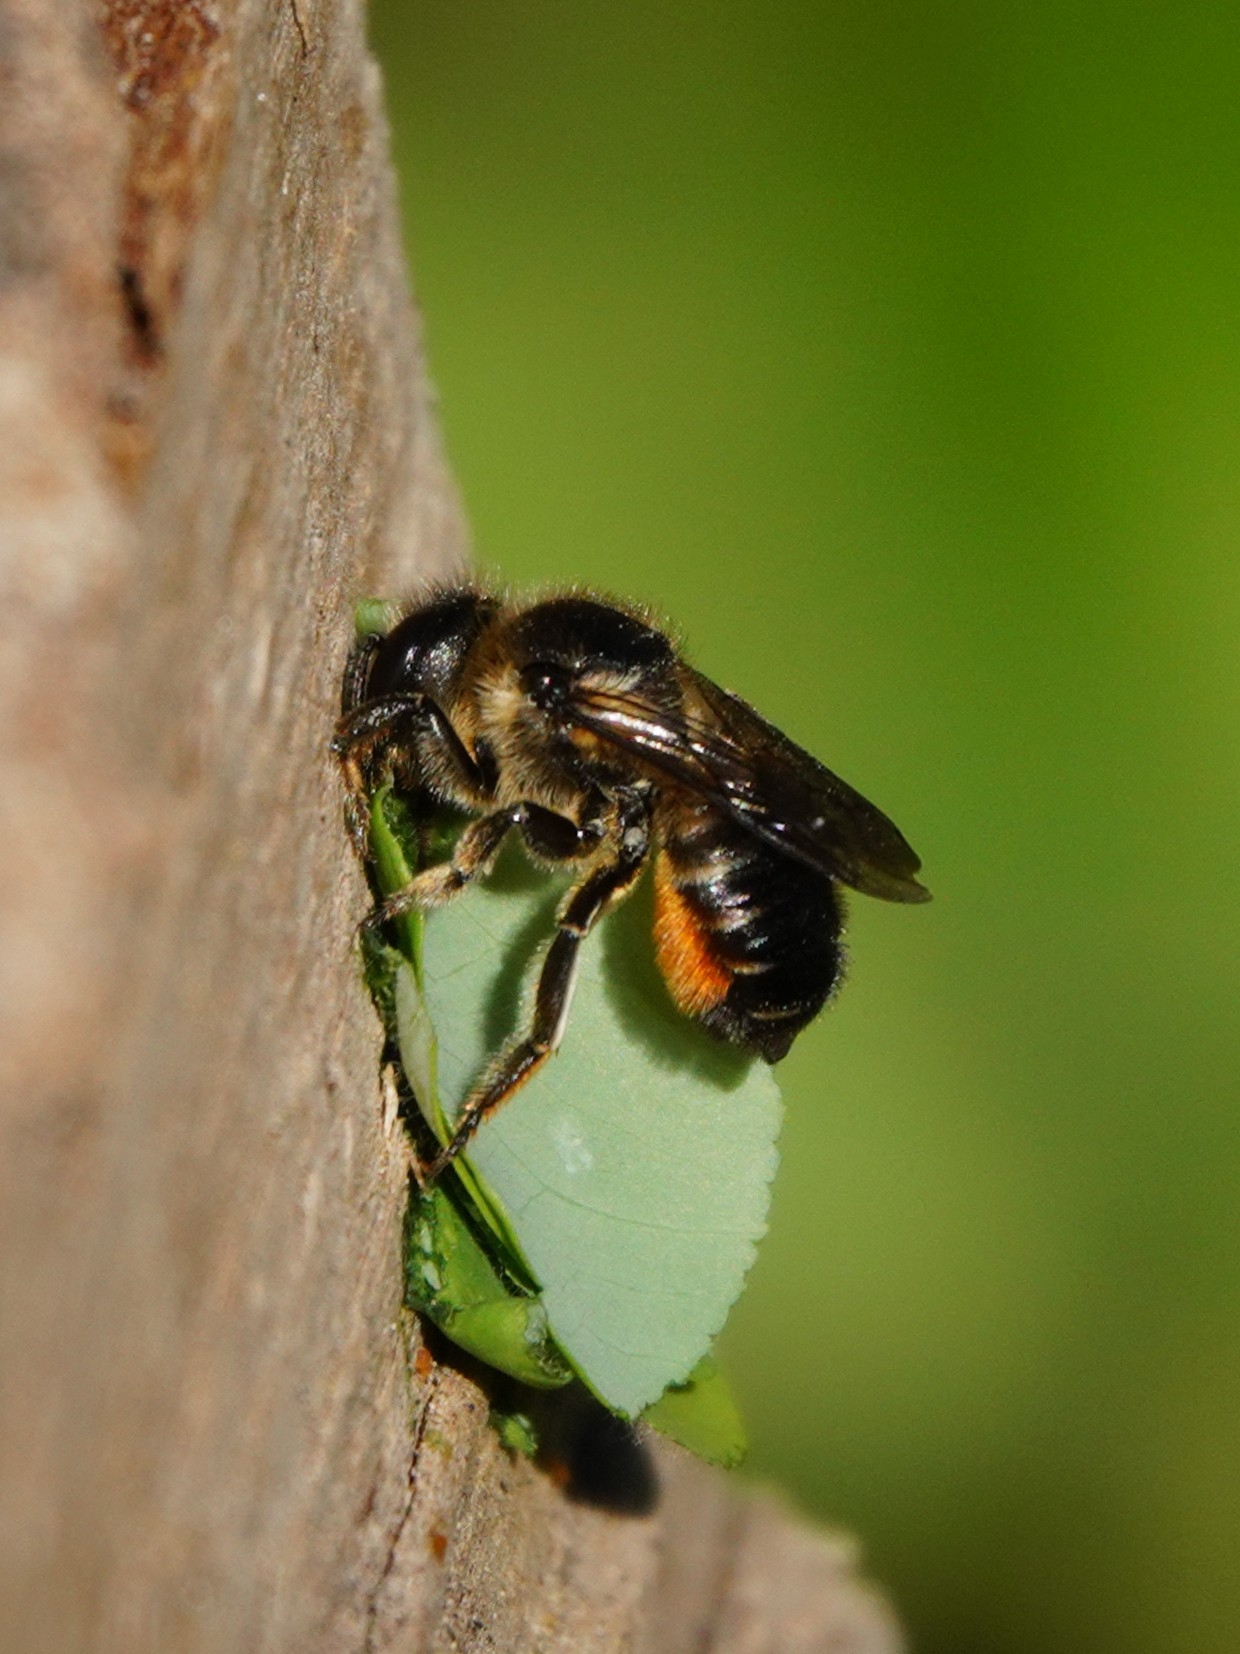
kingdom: Animalia
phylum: Arthropoda
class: Insecta
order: Hymenoptera
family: Megachilidae
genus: Megachile
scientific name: Megachile willughbiella
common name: Willughby's leafcutter bee
